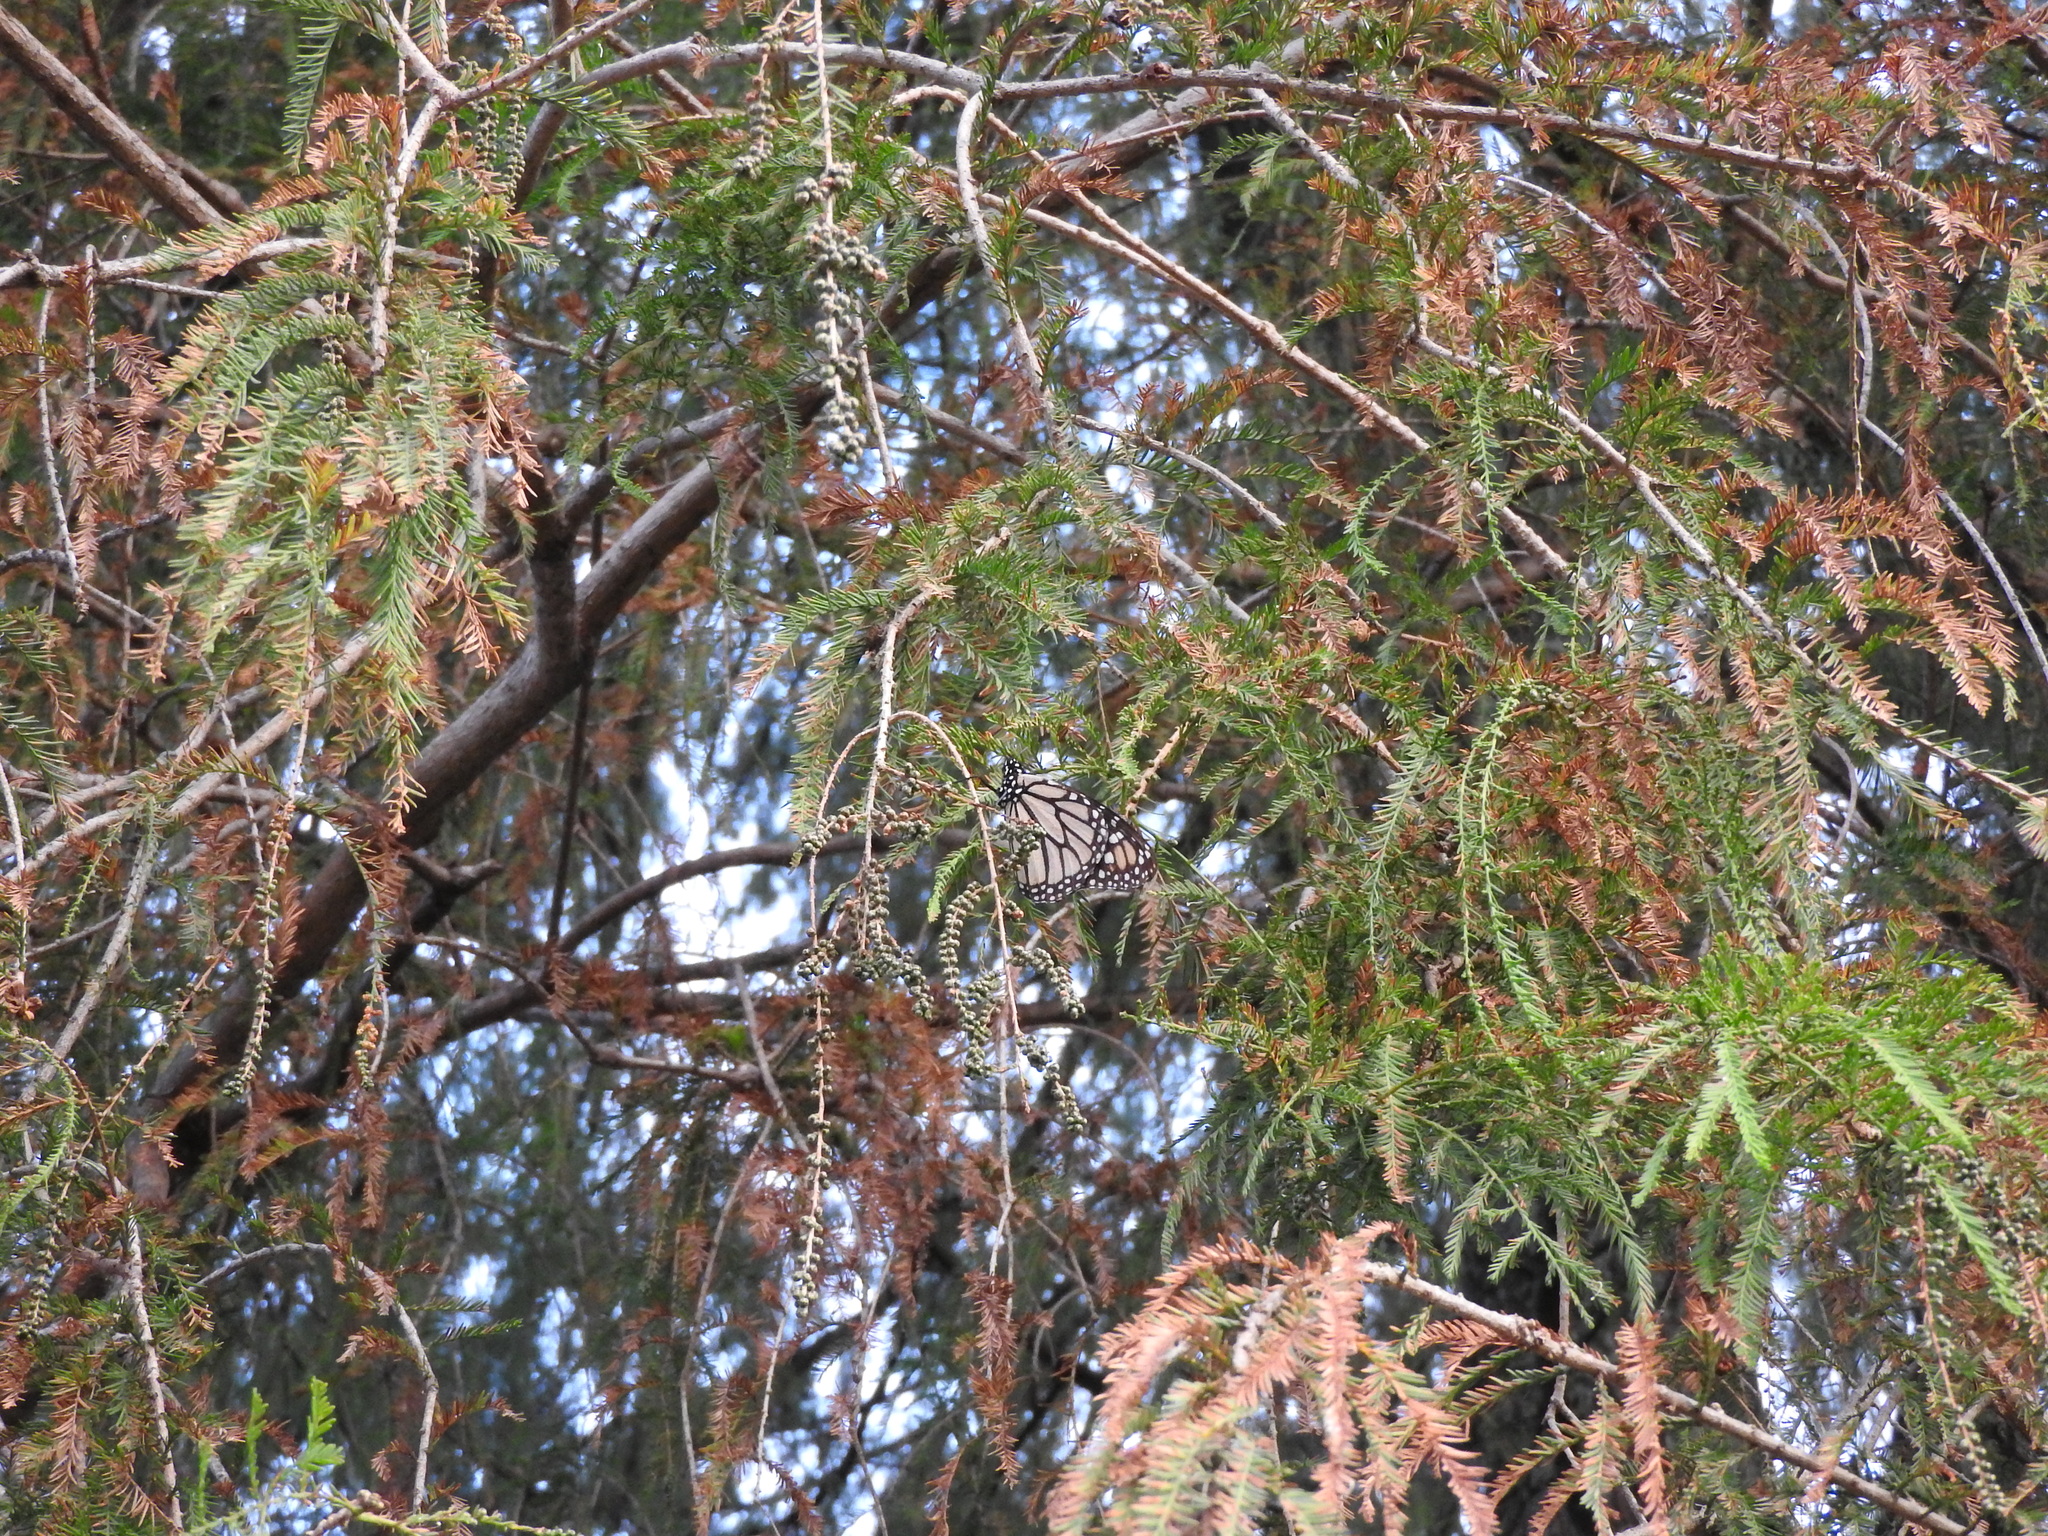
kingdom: Animalia
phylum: Arthropoda
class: Insecta
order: Lepidoptera
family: Nymphalidae
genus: Danaus
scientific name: Danaus plexippus
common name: Monarch
